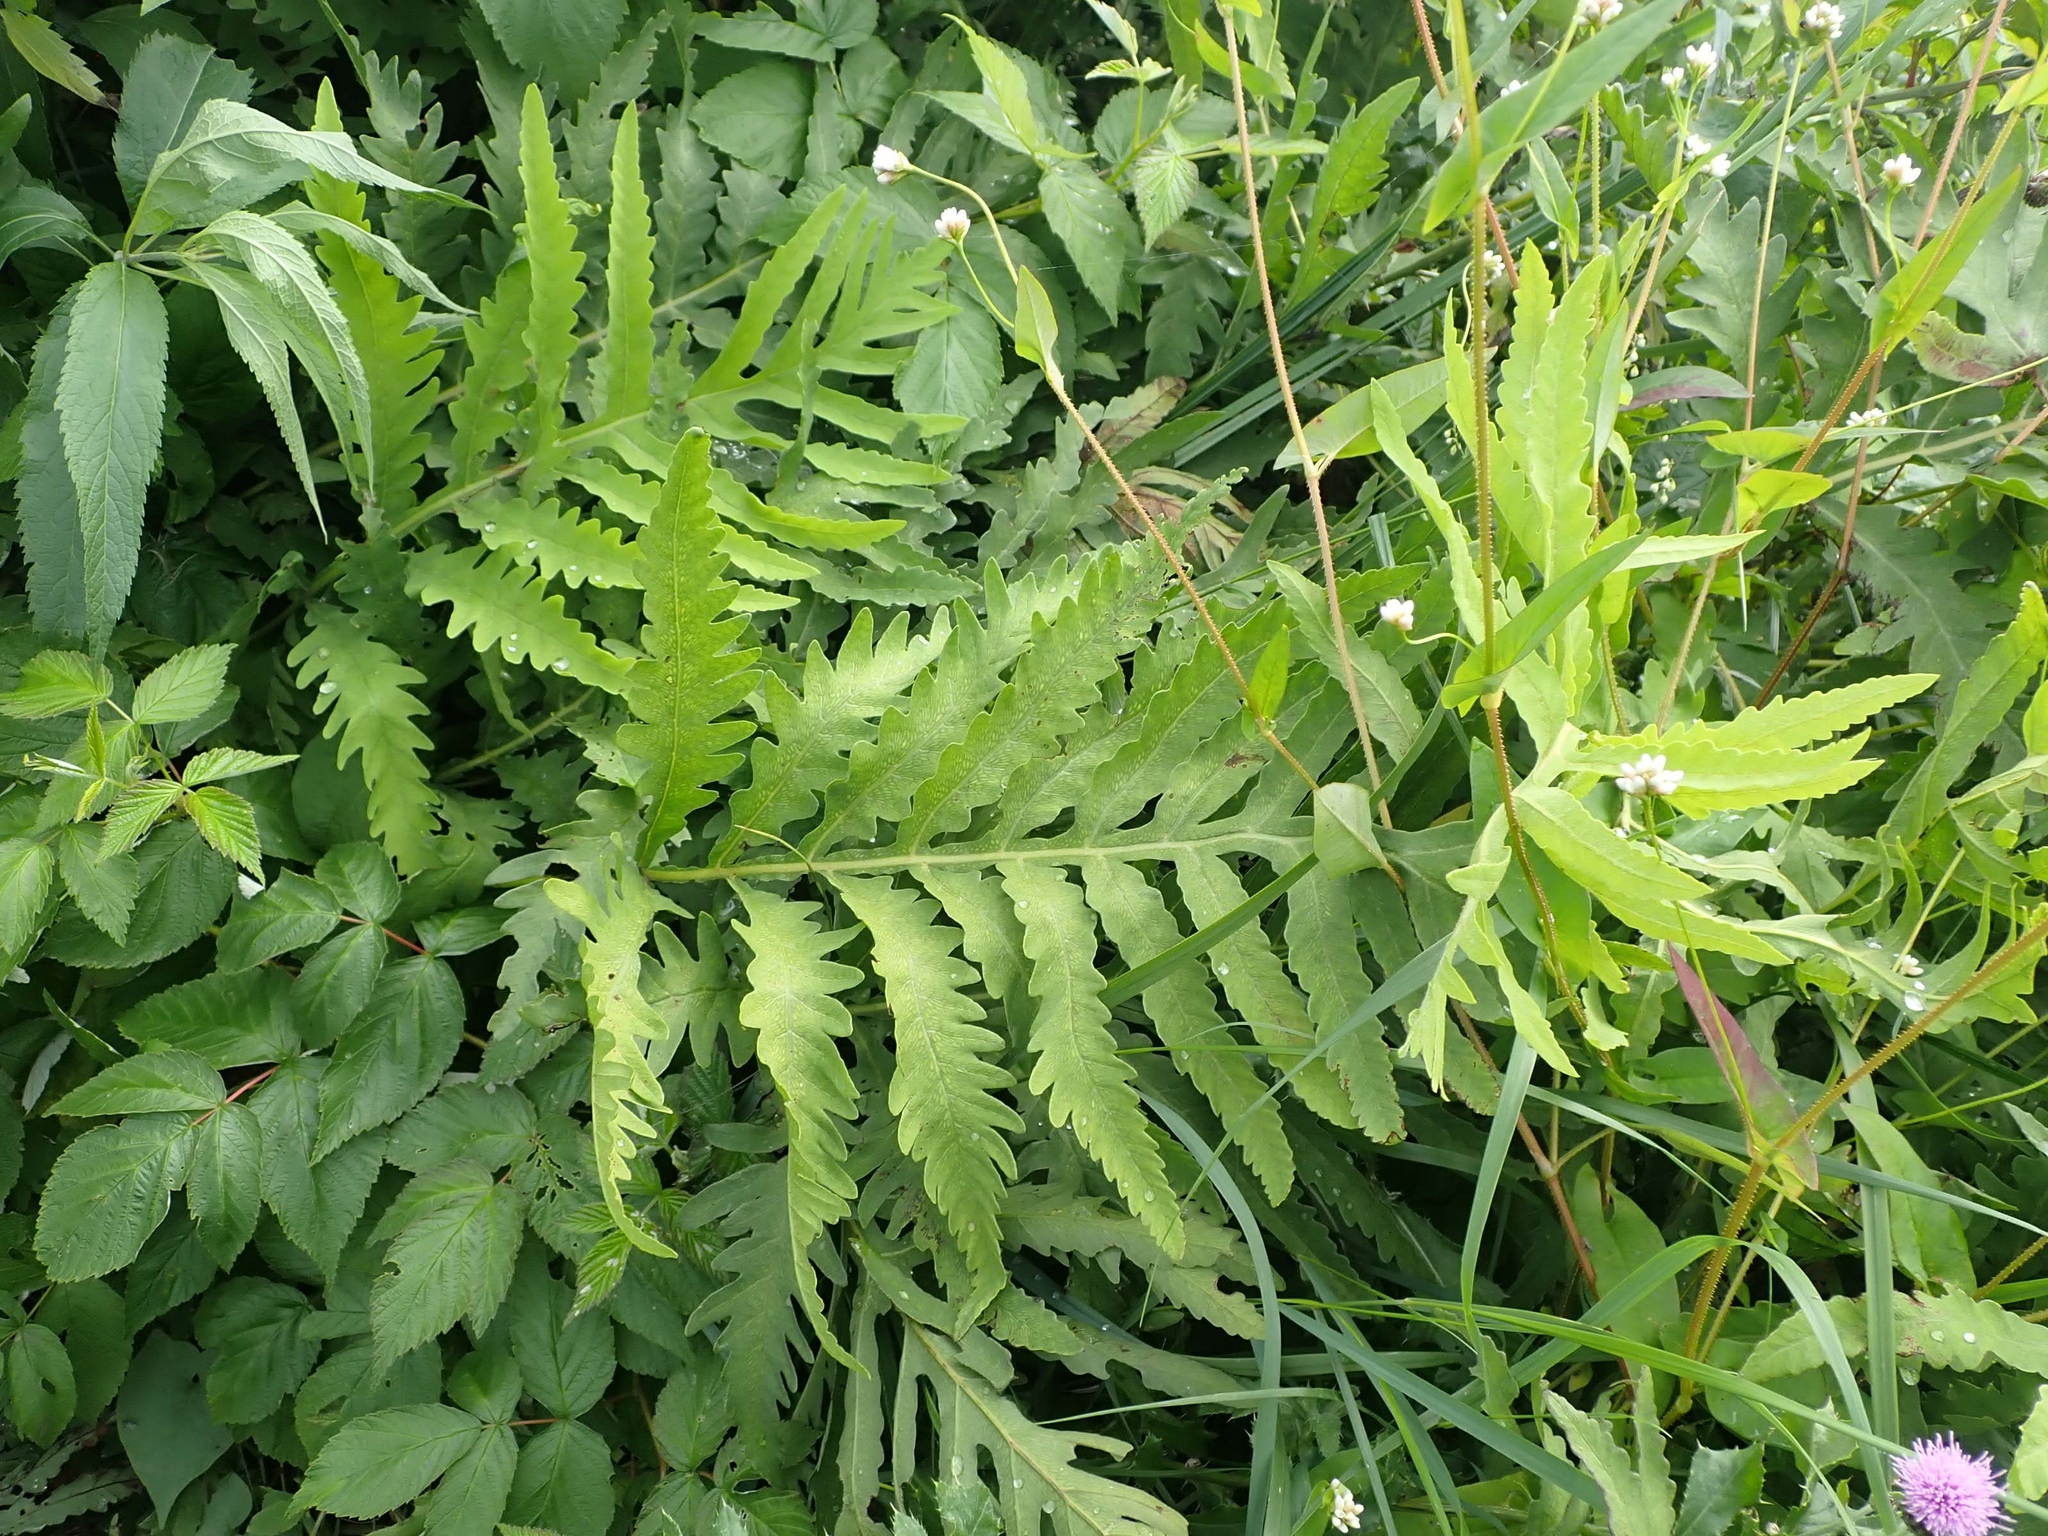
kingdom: Plantae
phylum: Tracheophyta
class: Polypodiopsida
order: Polypodiales
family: Onocleaceae
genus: Onoclea
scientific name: Onoclea sensibilis
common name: Sensitive fern
